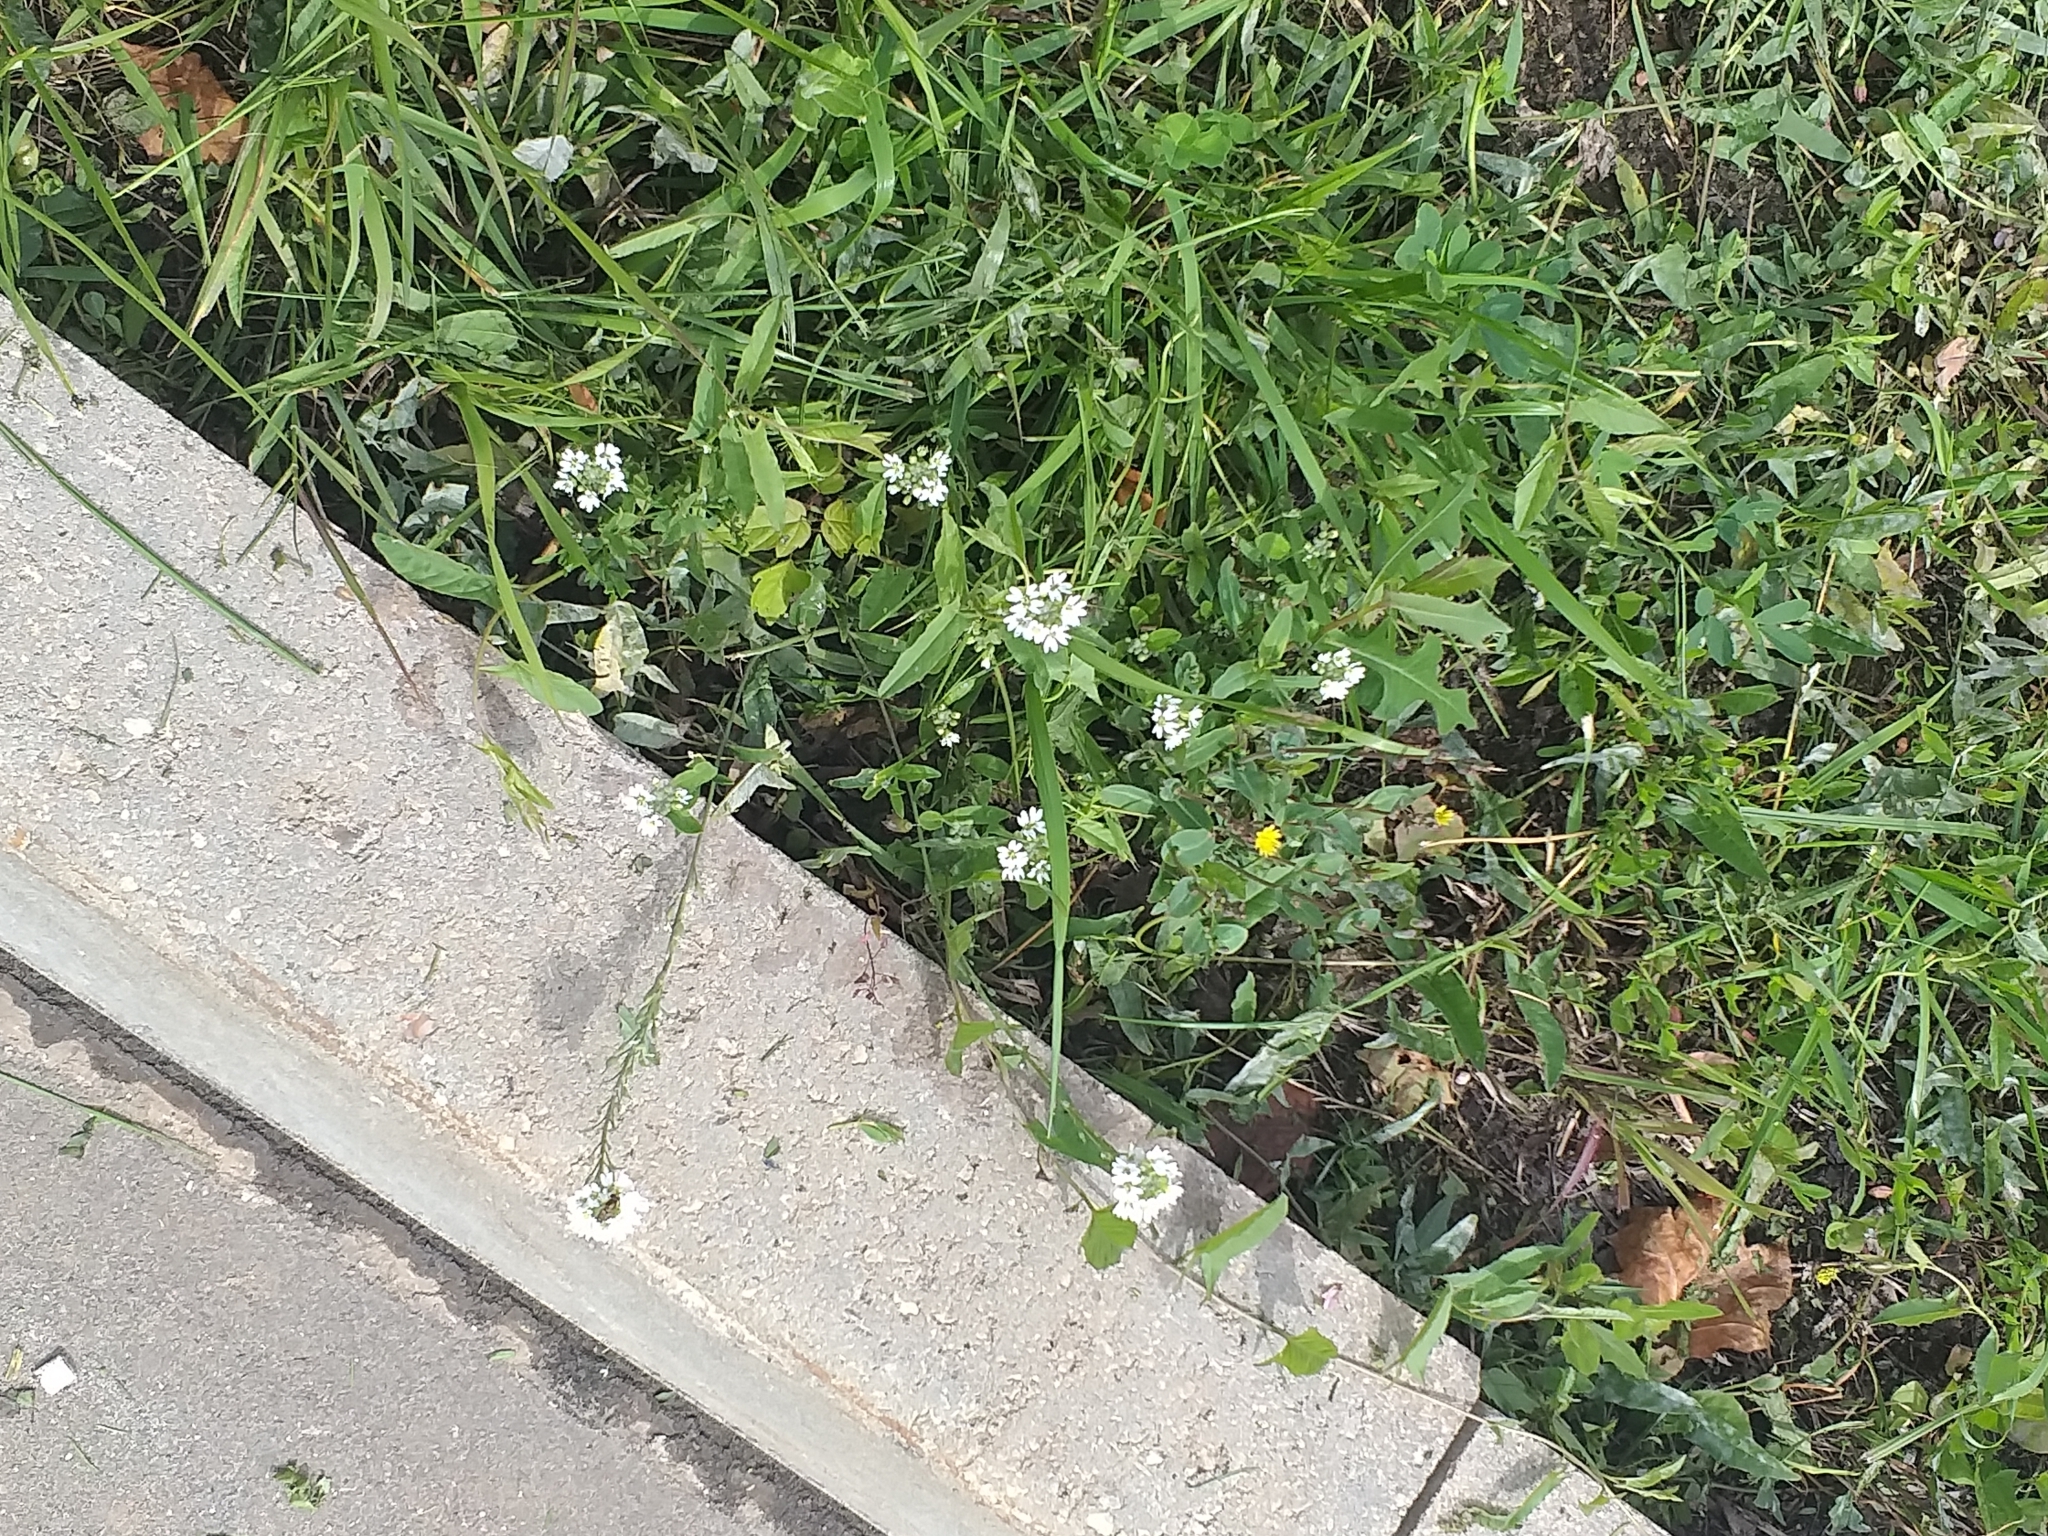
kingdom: Plantae
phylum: Tracheophyta
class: Magnoliopsida
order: Brassicales
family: Brassicaceae
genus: Berteroa
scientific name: Berteroa incana
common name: Hoary alison
